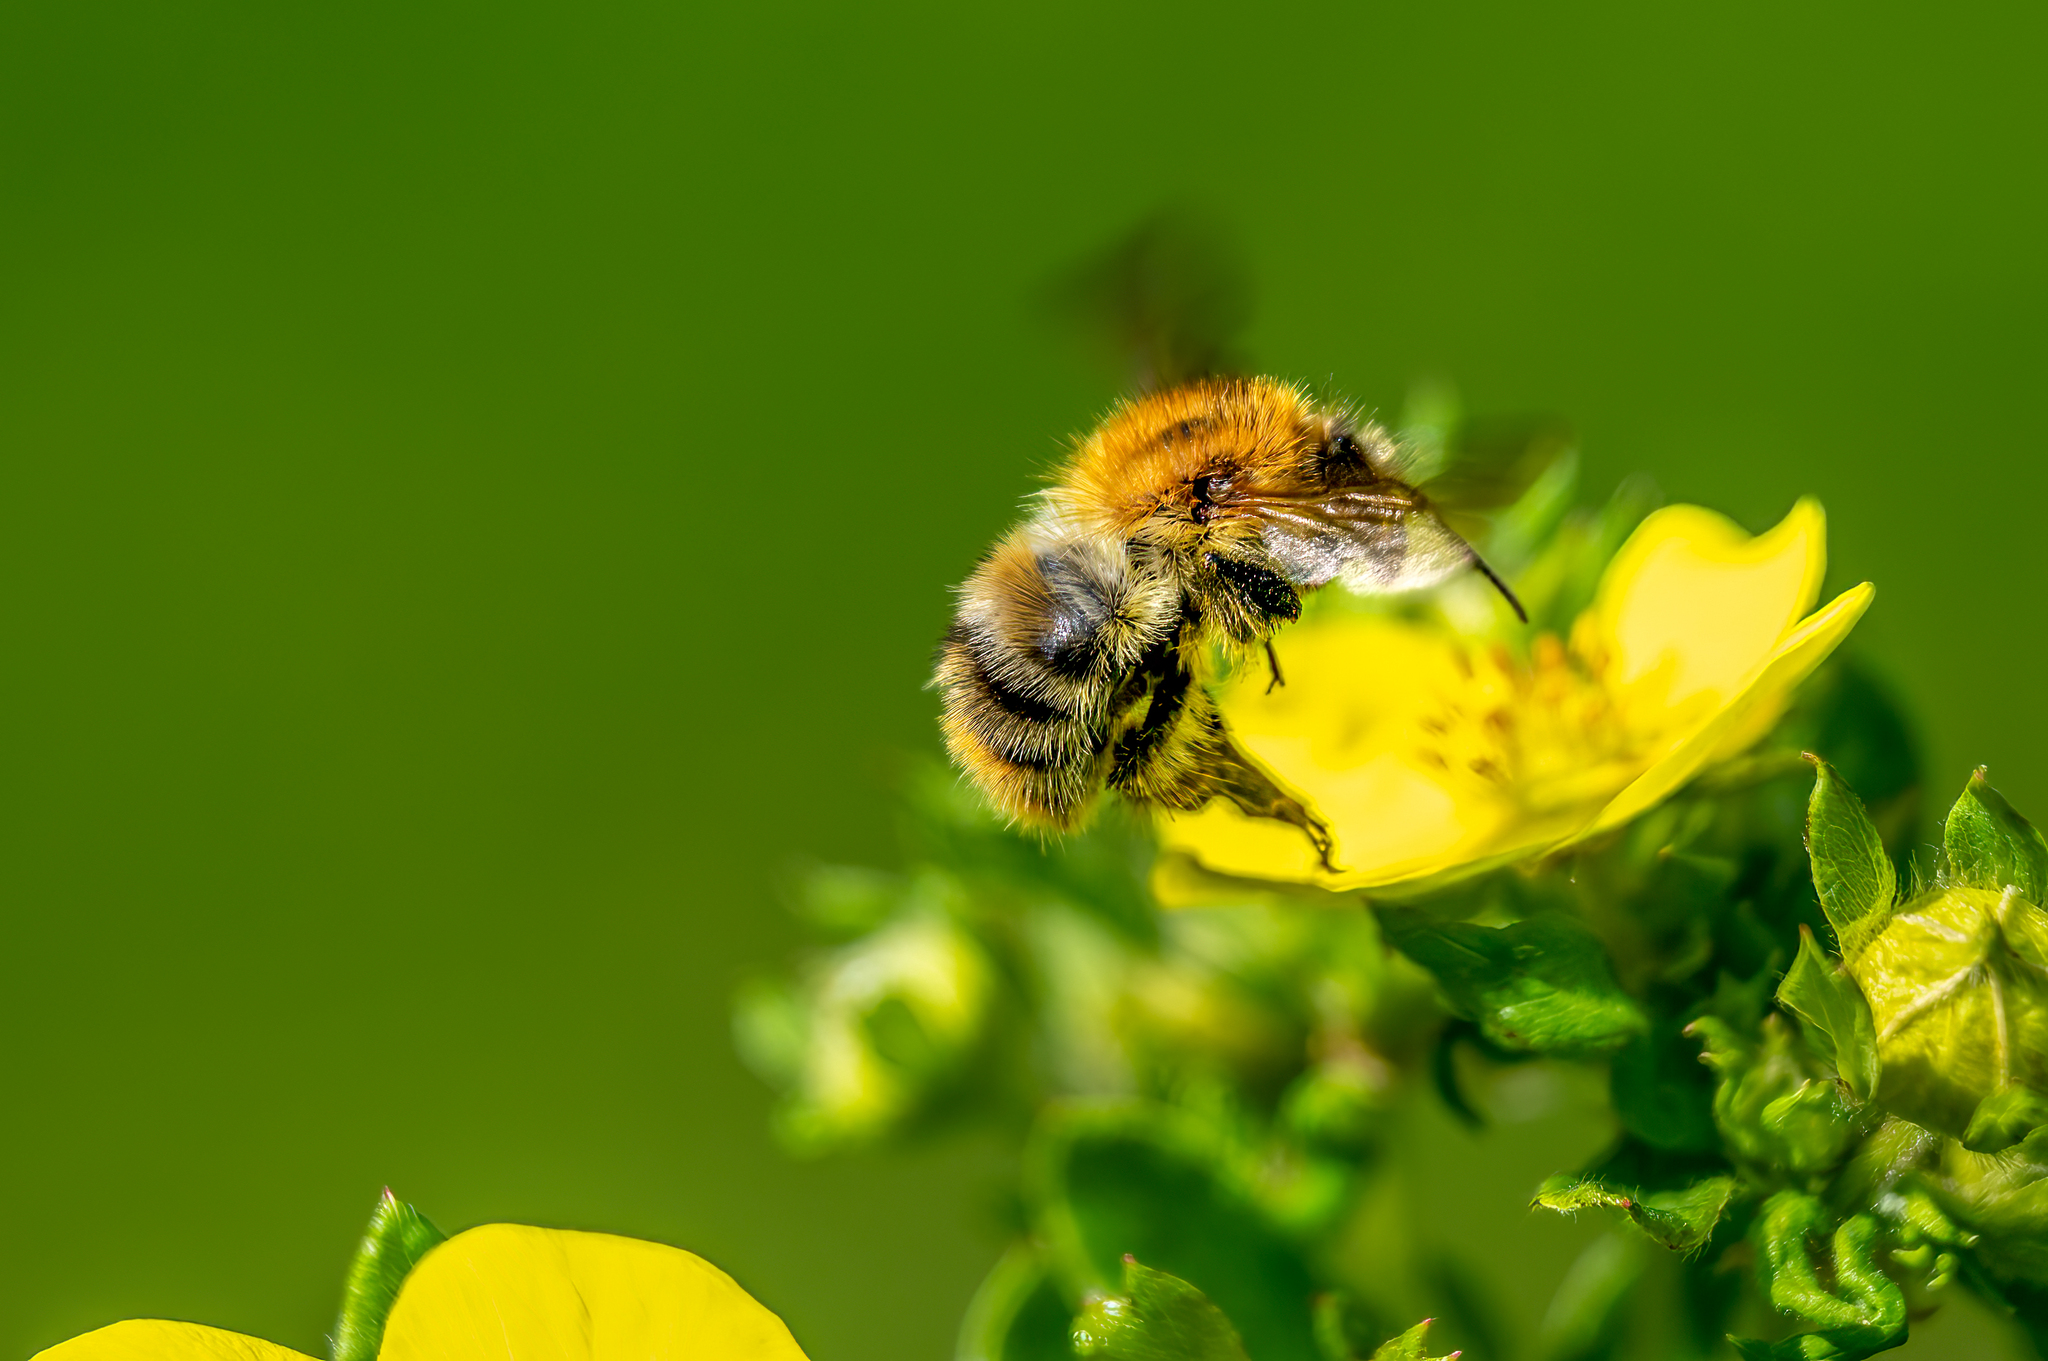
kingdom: Animalia
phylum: Arthropoda
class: Insecta
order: Hymenoptera
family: Apidae
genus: Bombus
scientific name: Bombus pascuorum
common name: Common carder bee
